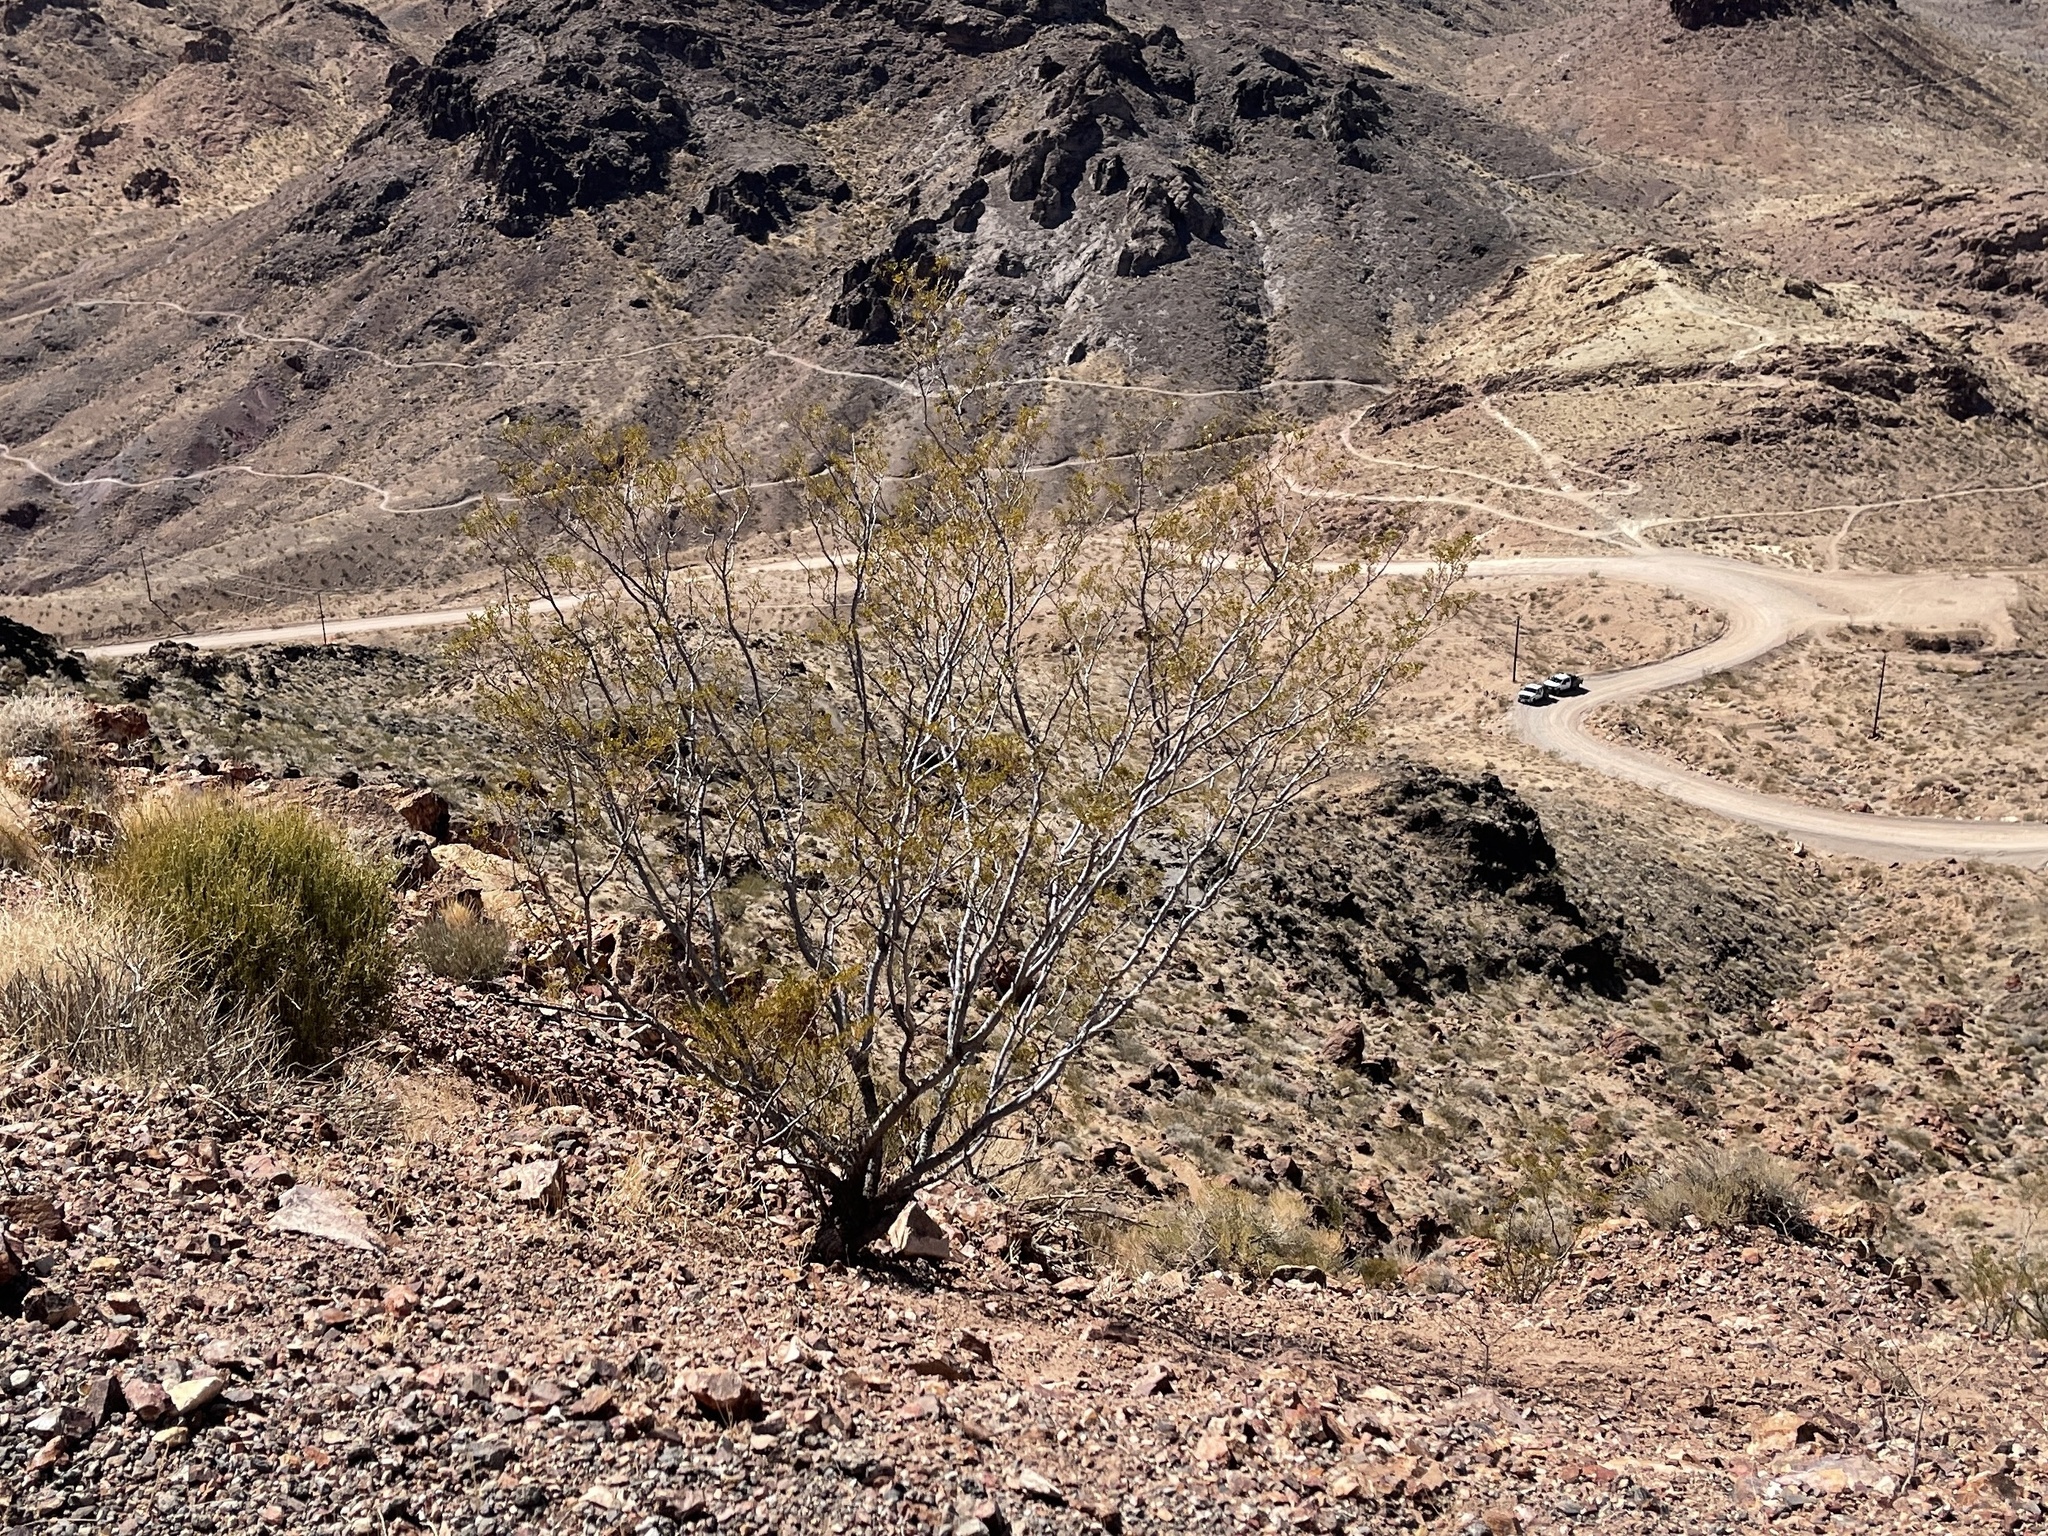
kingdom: Plantae
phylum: Tracheophyta
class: Magnoliopsida
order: Zygophyllales
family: Zygophyllaceae
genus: Larrea
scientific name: Larrea tridentata
